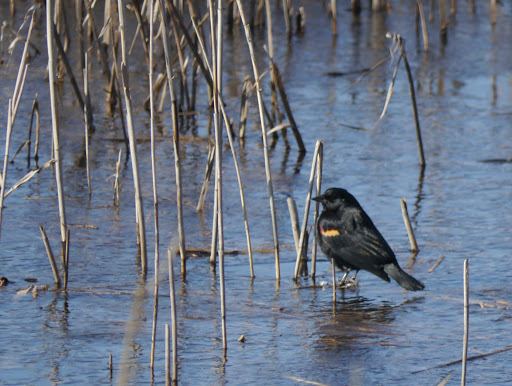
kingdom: Animalia
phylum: Chordata
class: Aves
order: Passeriformes
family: Icteridae
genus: Agelaius
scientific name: Agelaius phoeniceus
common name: Red-winged blackbird
